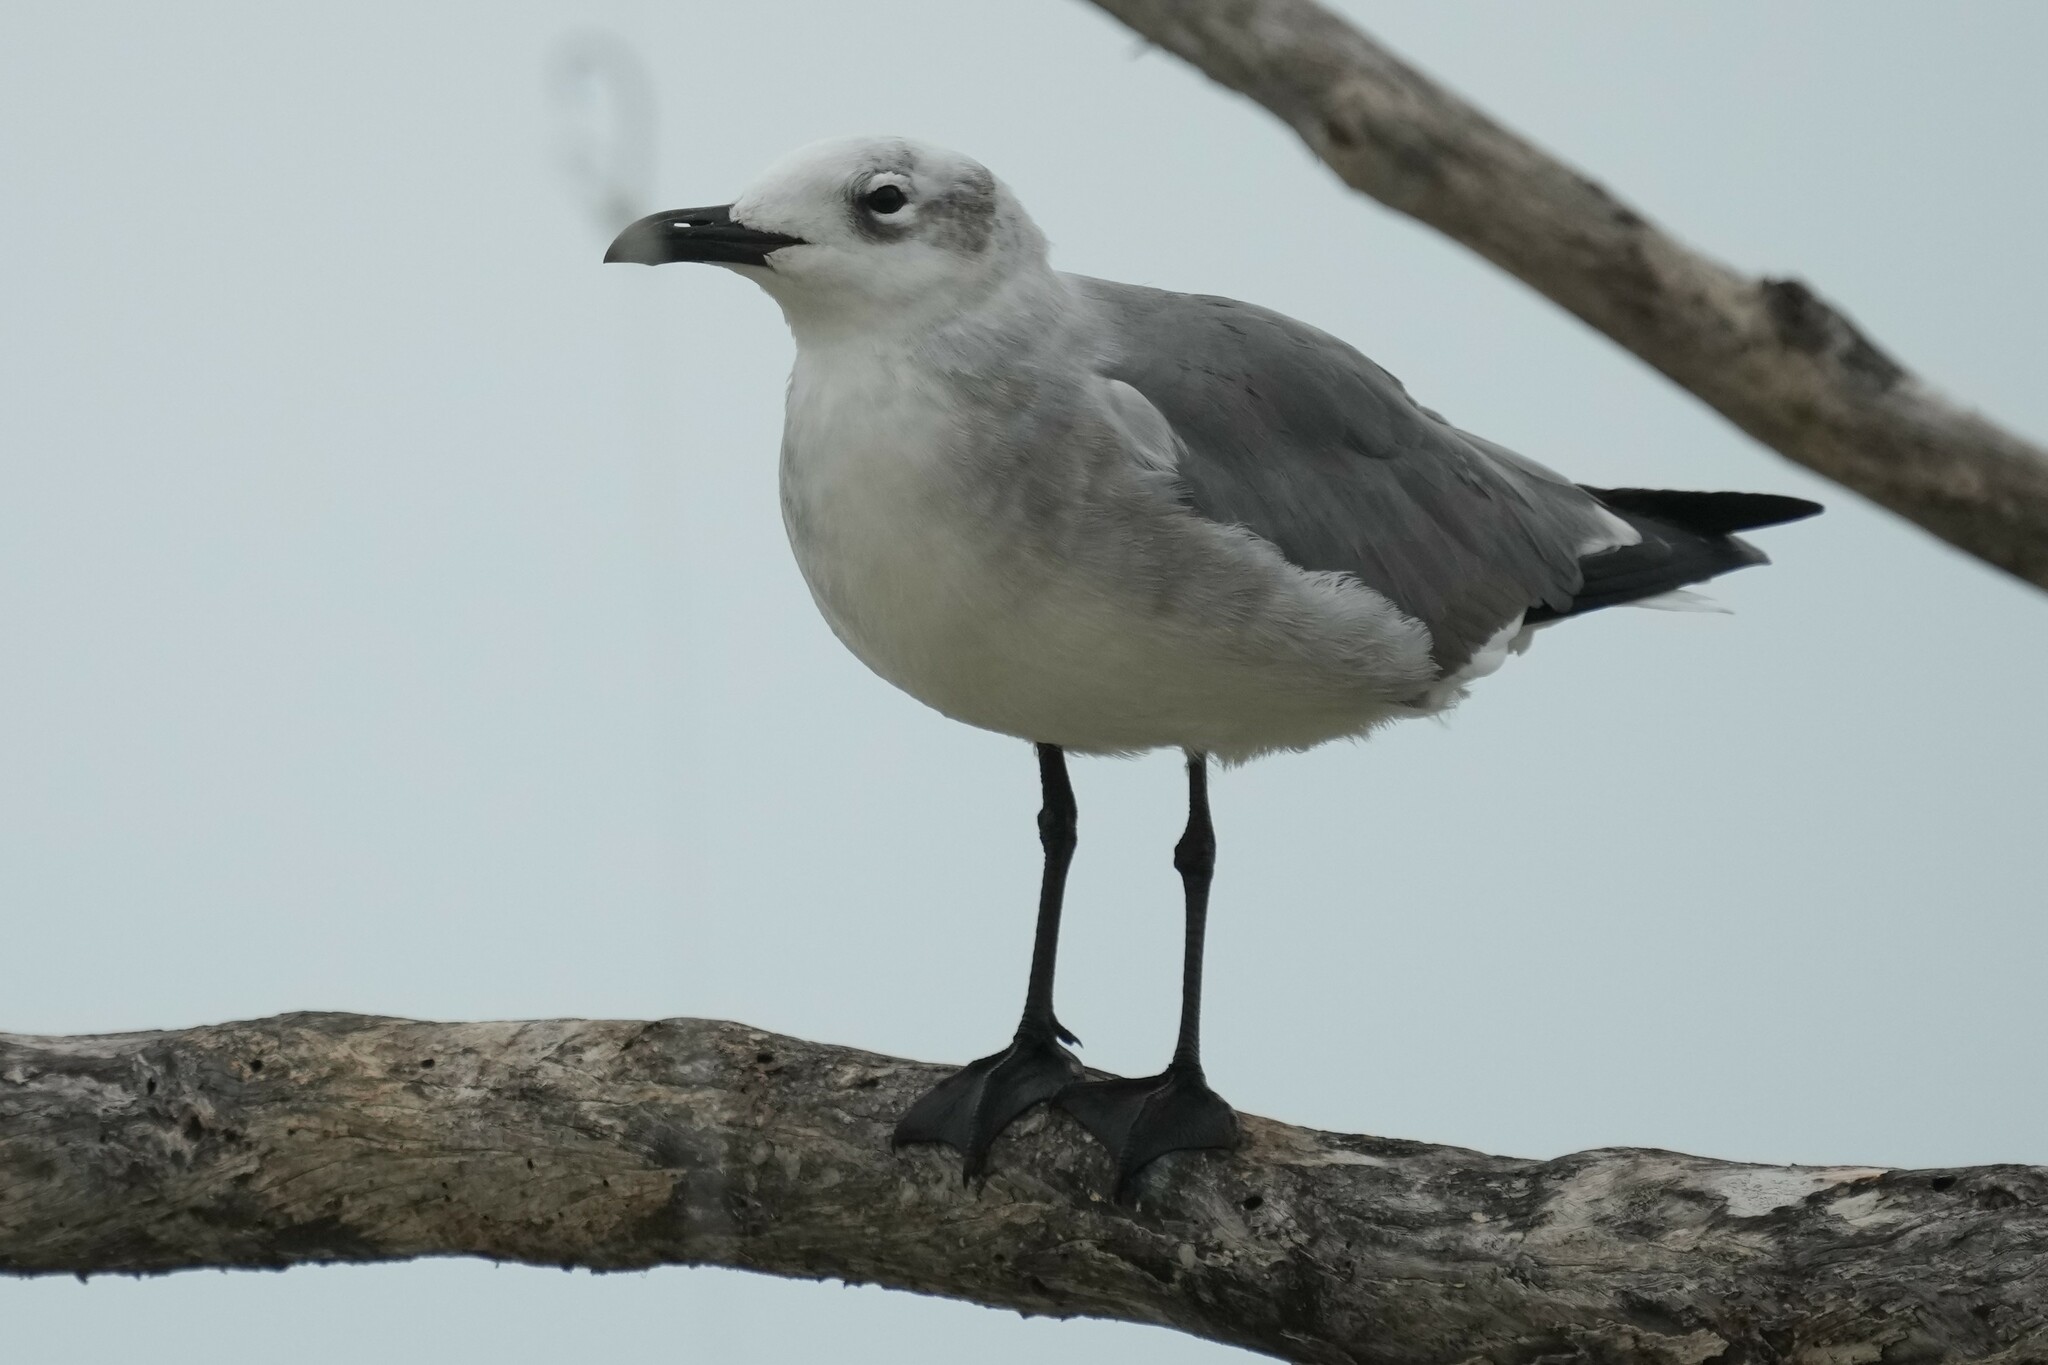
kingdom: Animalia
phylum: Chordata
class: Aves
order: Charadriiformes
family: Laridae
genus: Leucophaeus
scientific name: Leucophaeus atricilla
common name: Laughing gull
